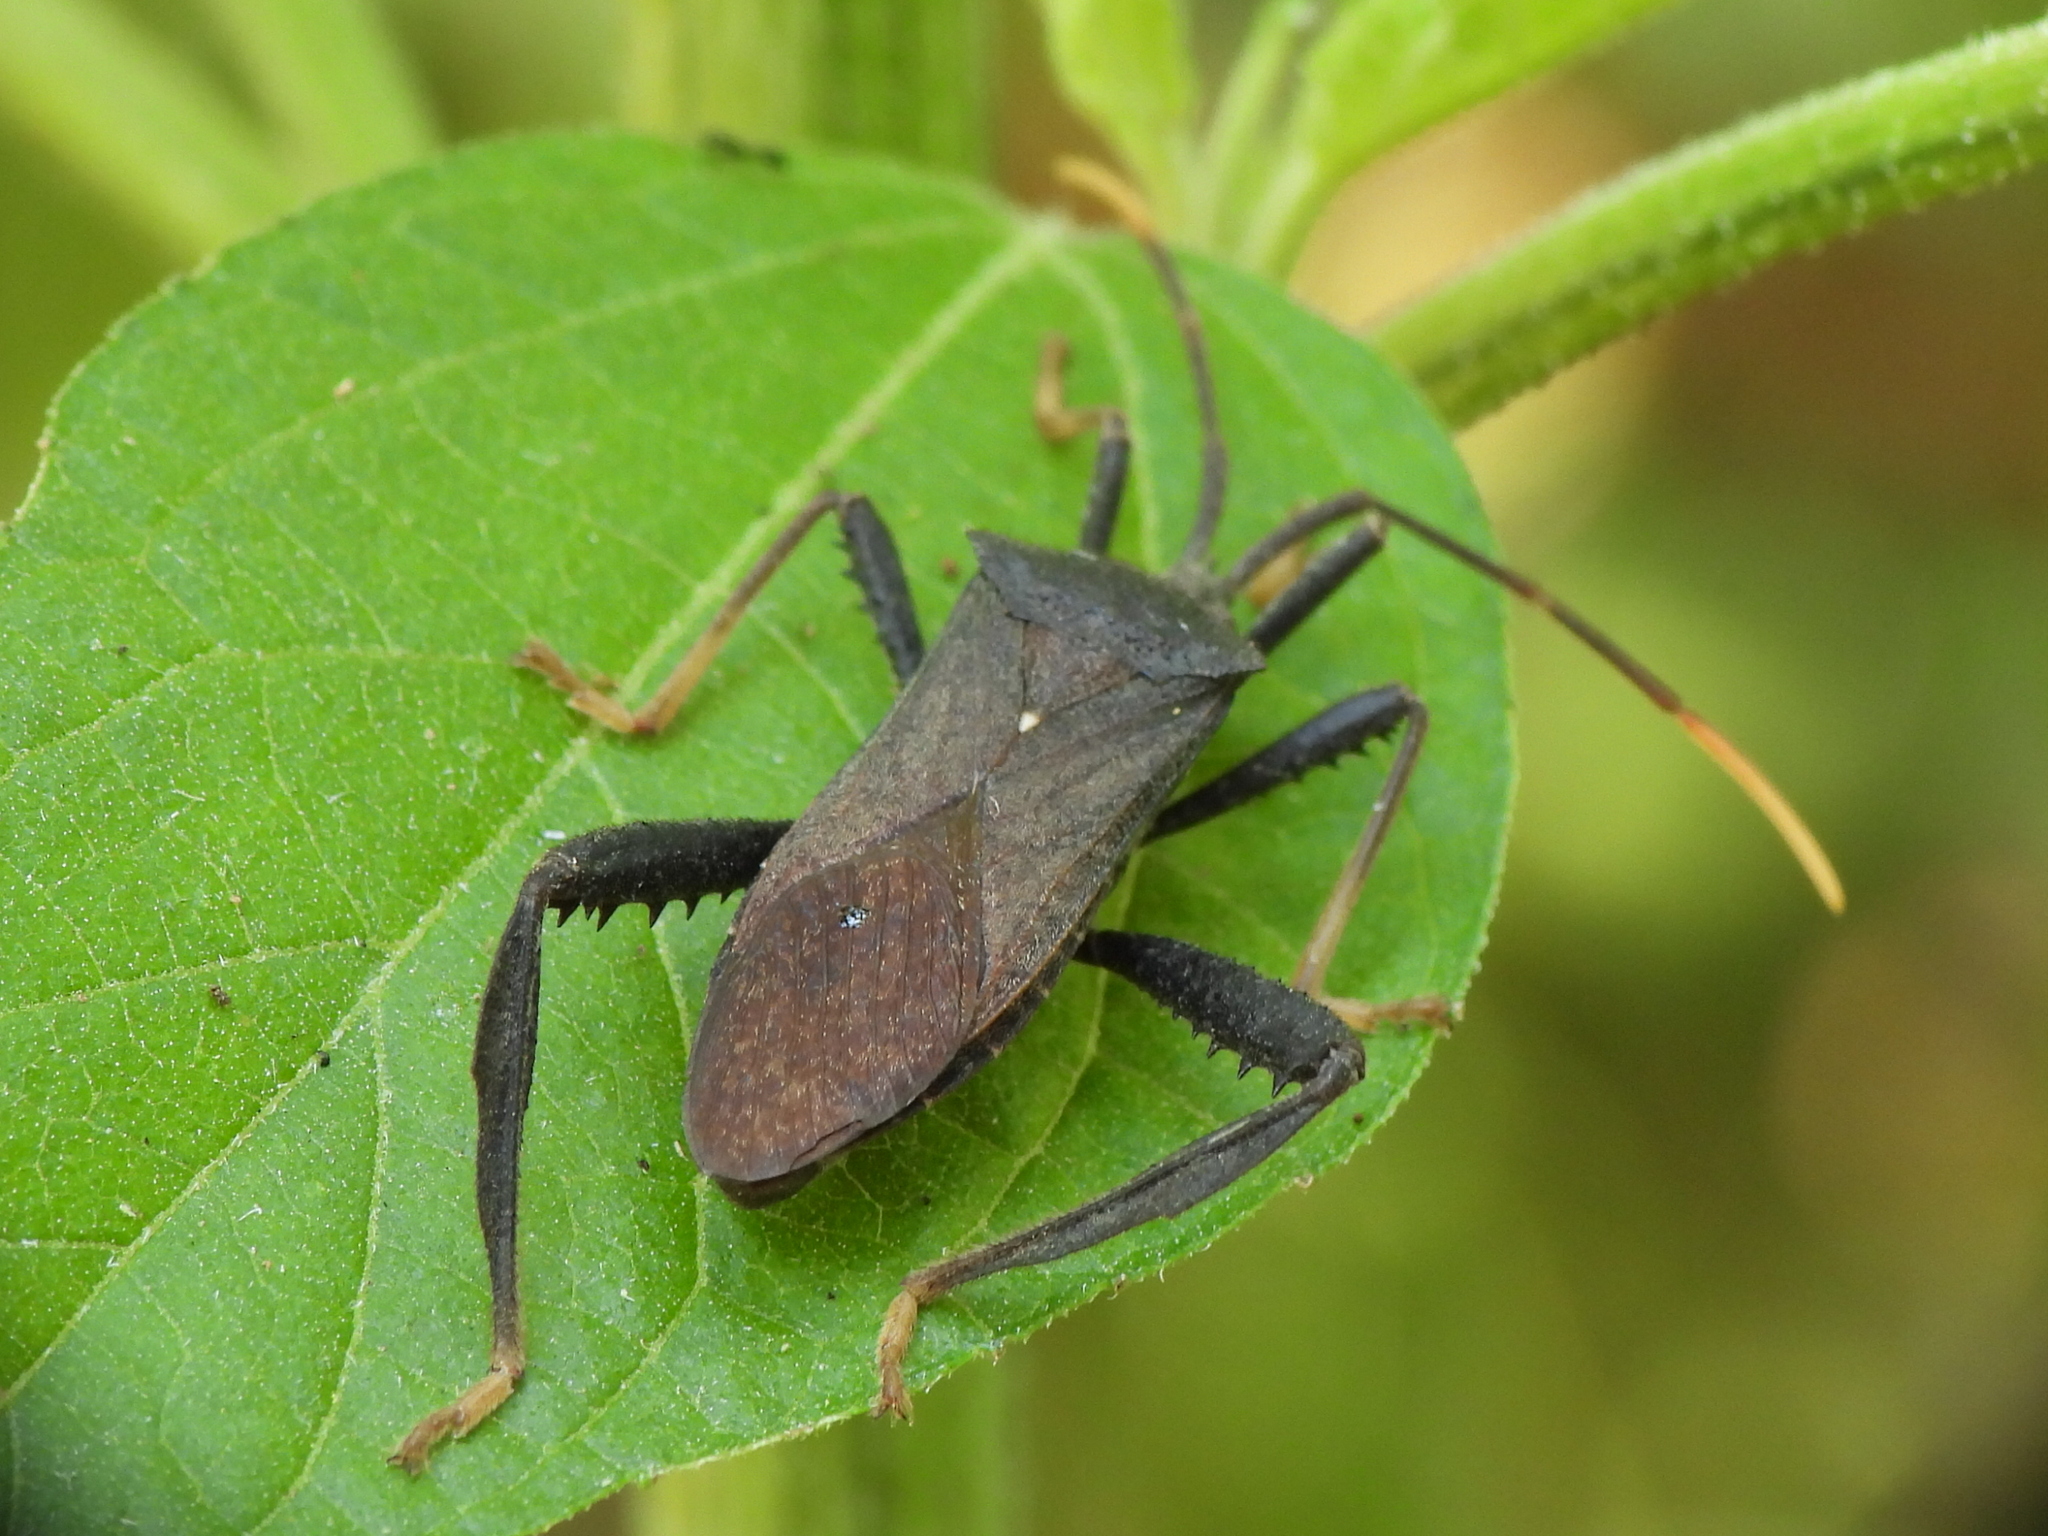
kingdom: Animalia
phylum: Arthropoda
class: Insecta
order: Hemiptera
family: Coreidae
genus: Acanthocephala
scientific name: Acanthocephala terminalis
